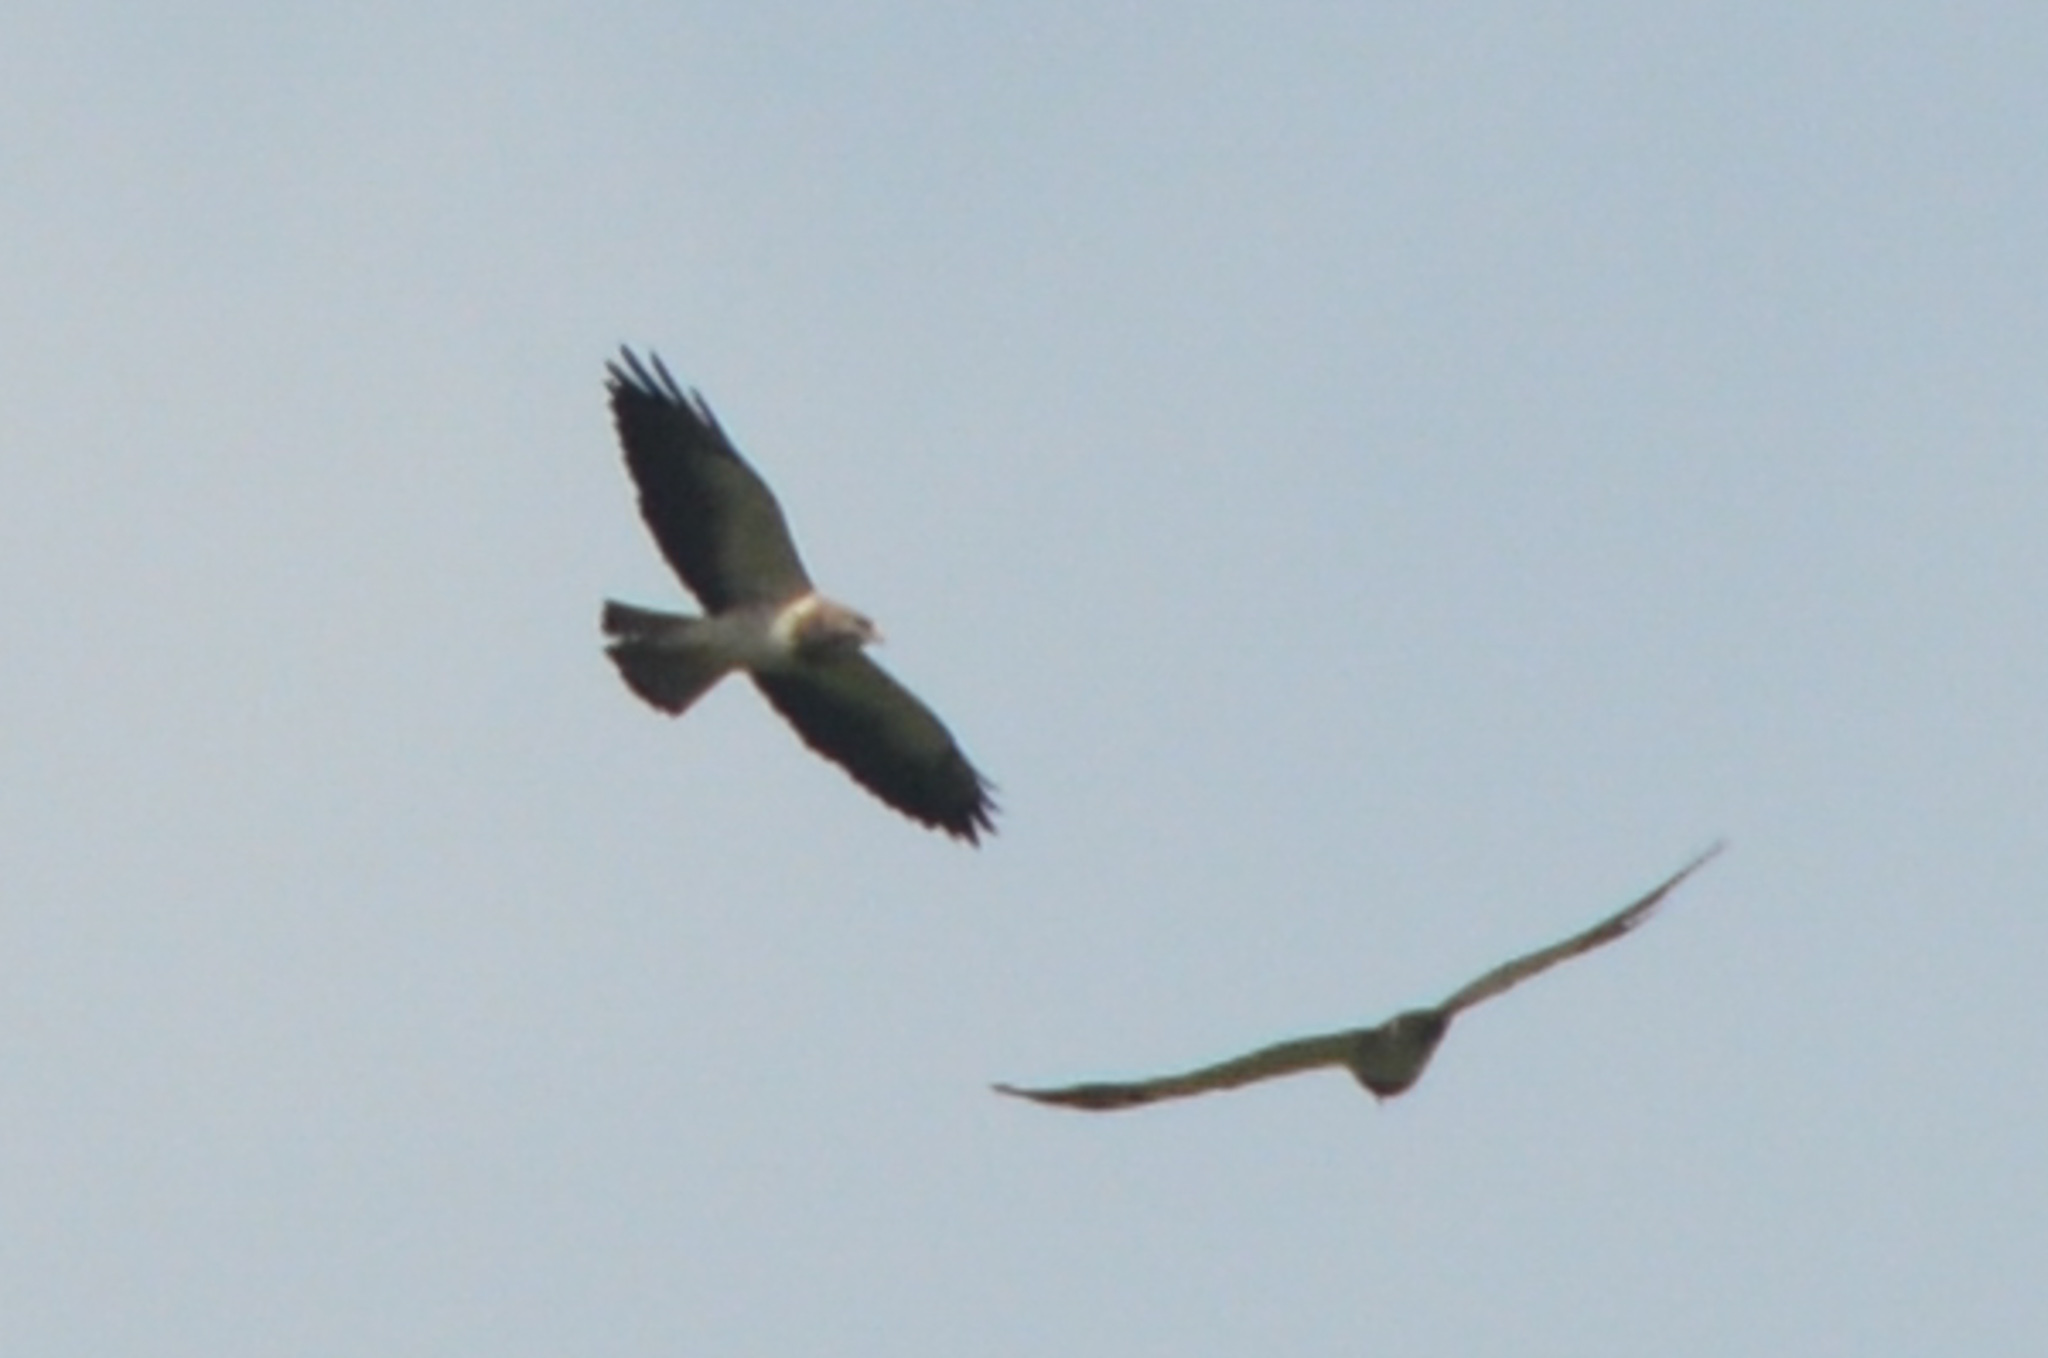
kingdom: Animalia
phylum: Chordata
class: Aves
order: Accipitriformes
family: Accipitridae
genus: Buteo
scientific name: Buteo swainsoni
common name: Swainson's hawk
